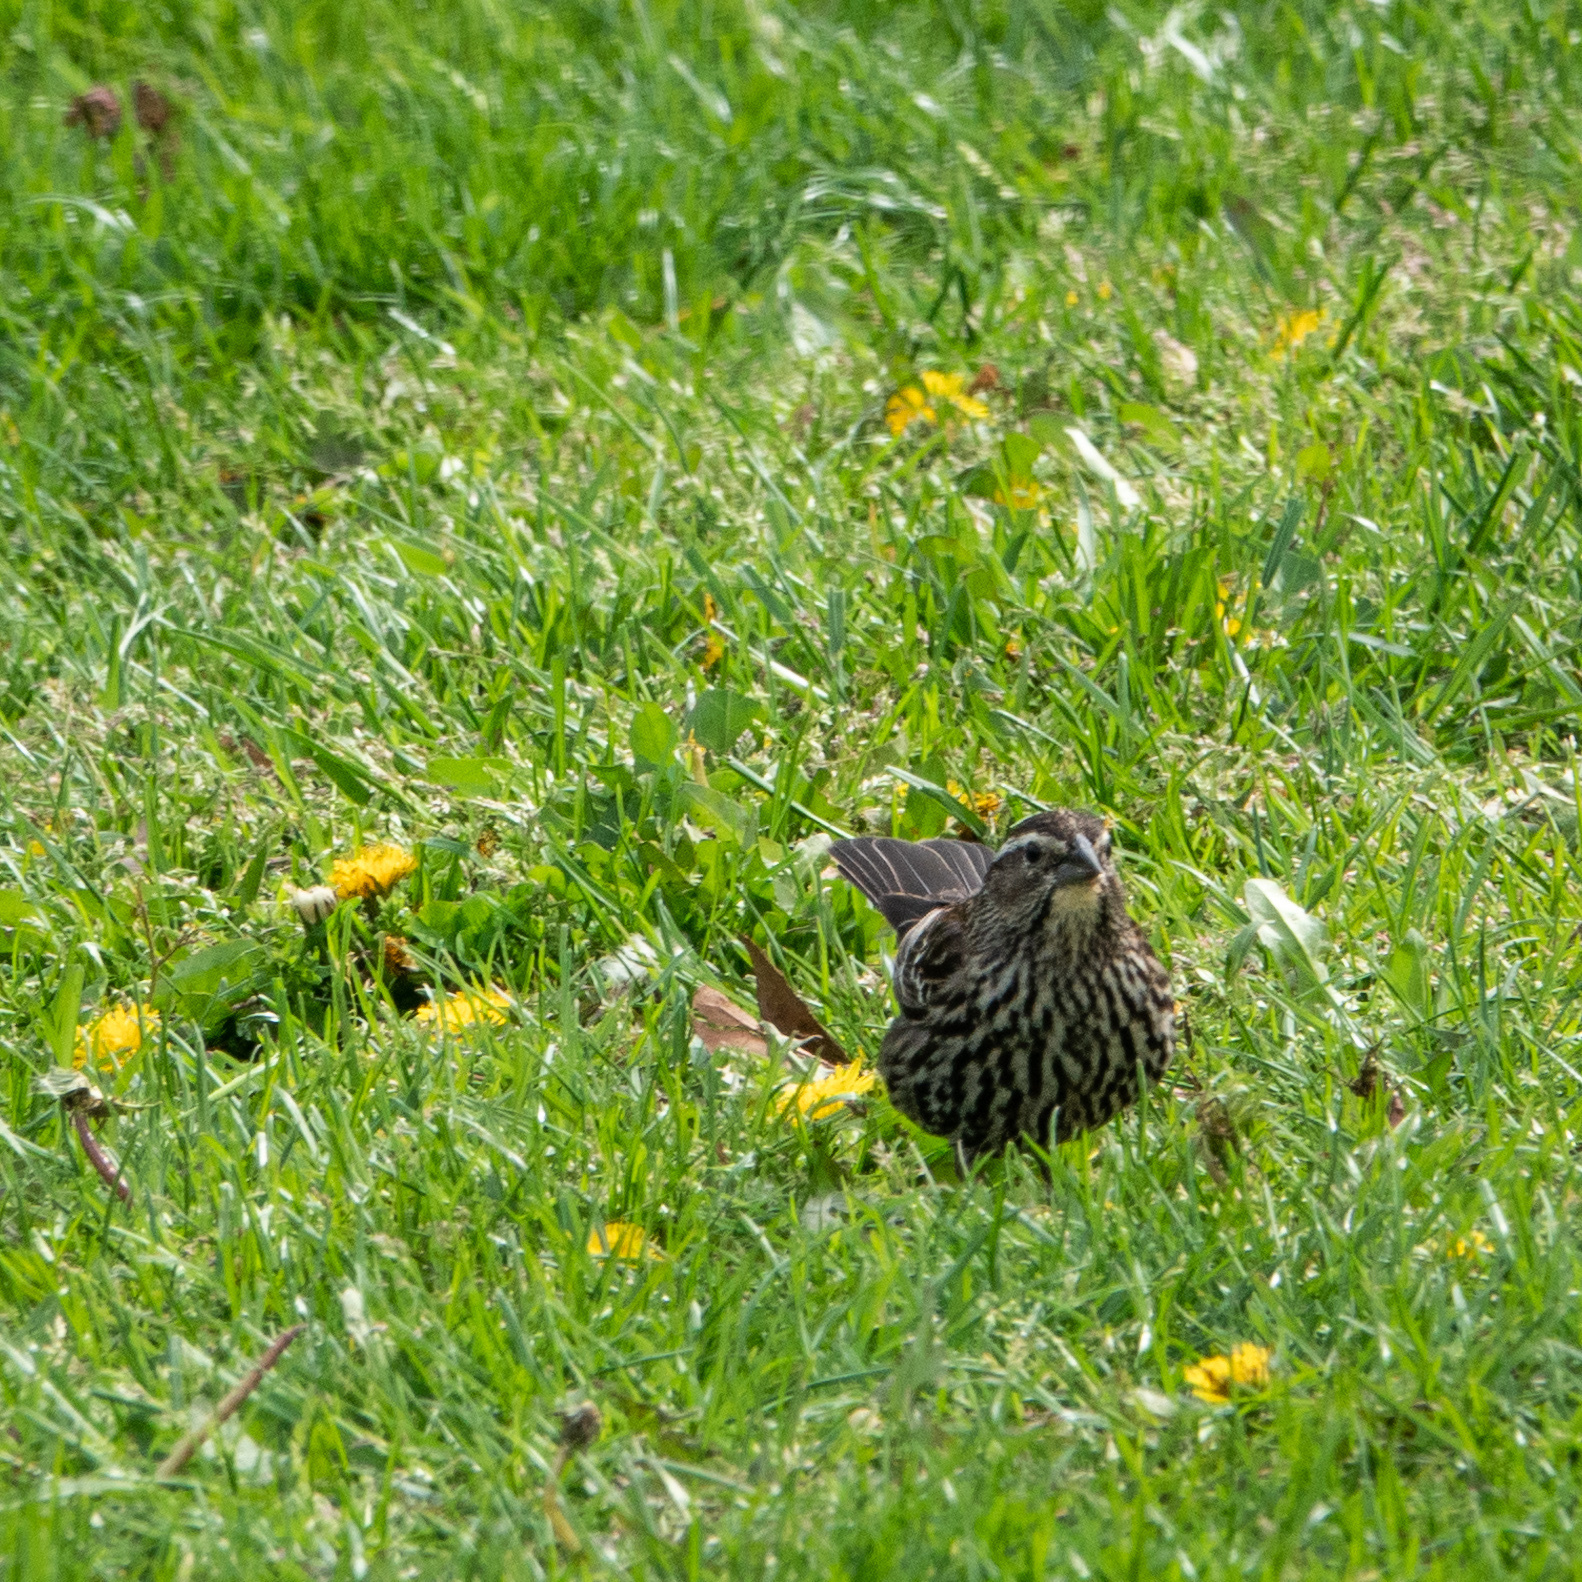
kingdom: Animalia
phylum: Chordata
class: Aves
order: Passeriformes
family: Icteridae
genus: Agelaius
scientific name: Agelaius phoeniceus
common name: Red-winged blackbird
